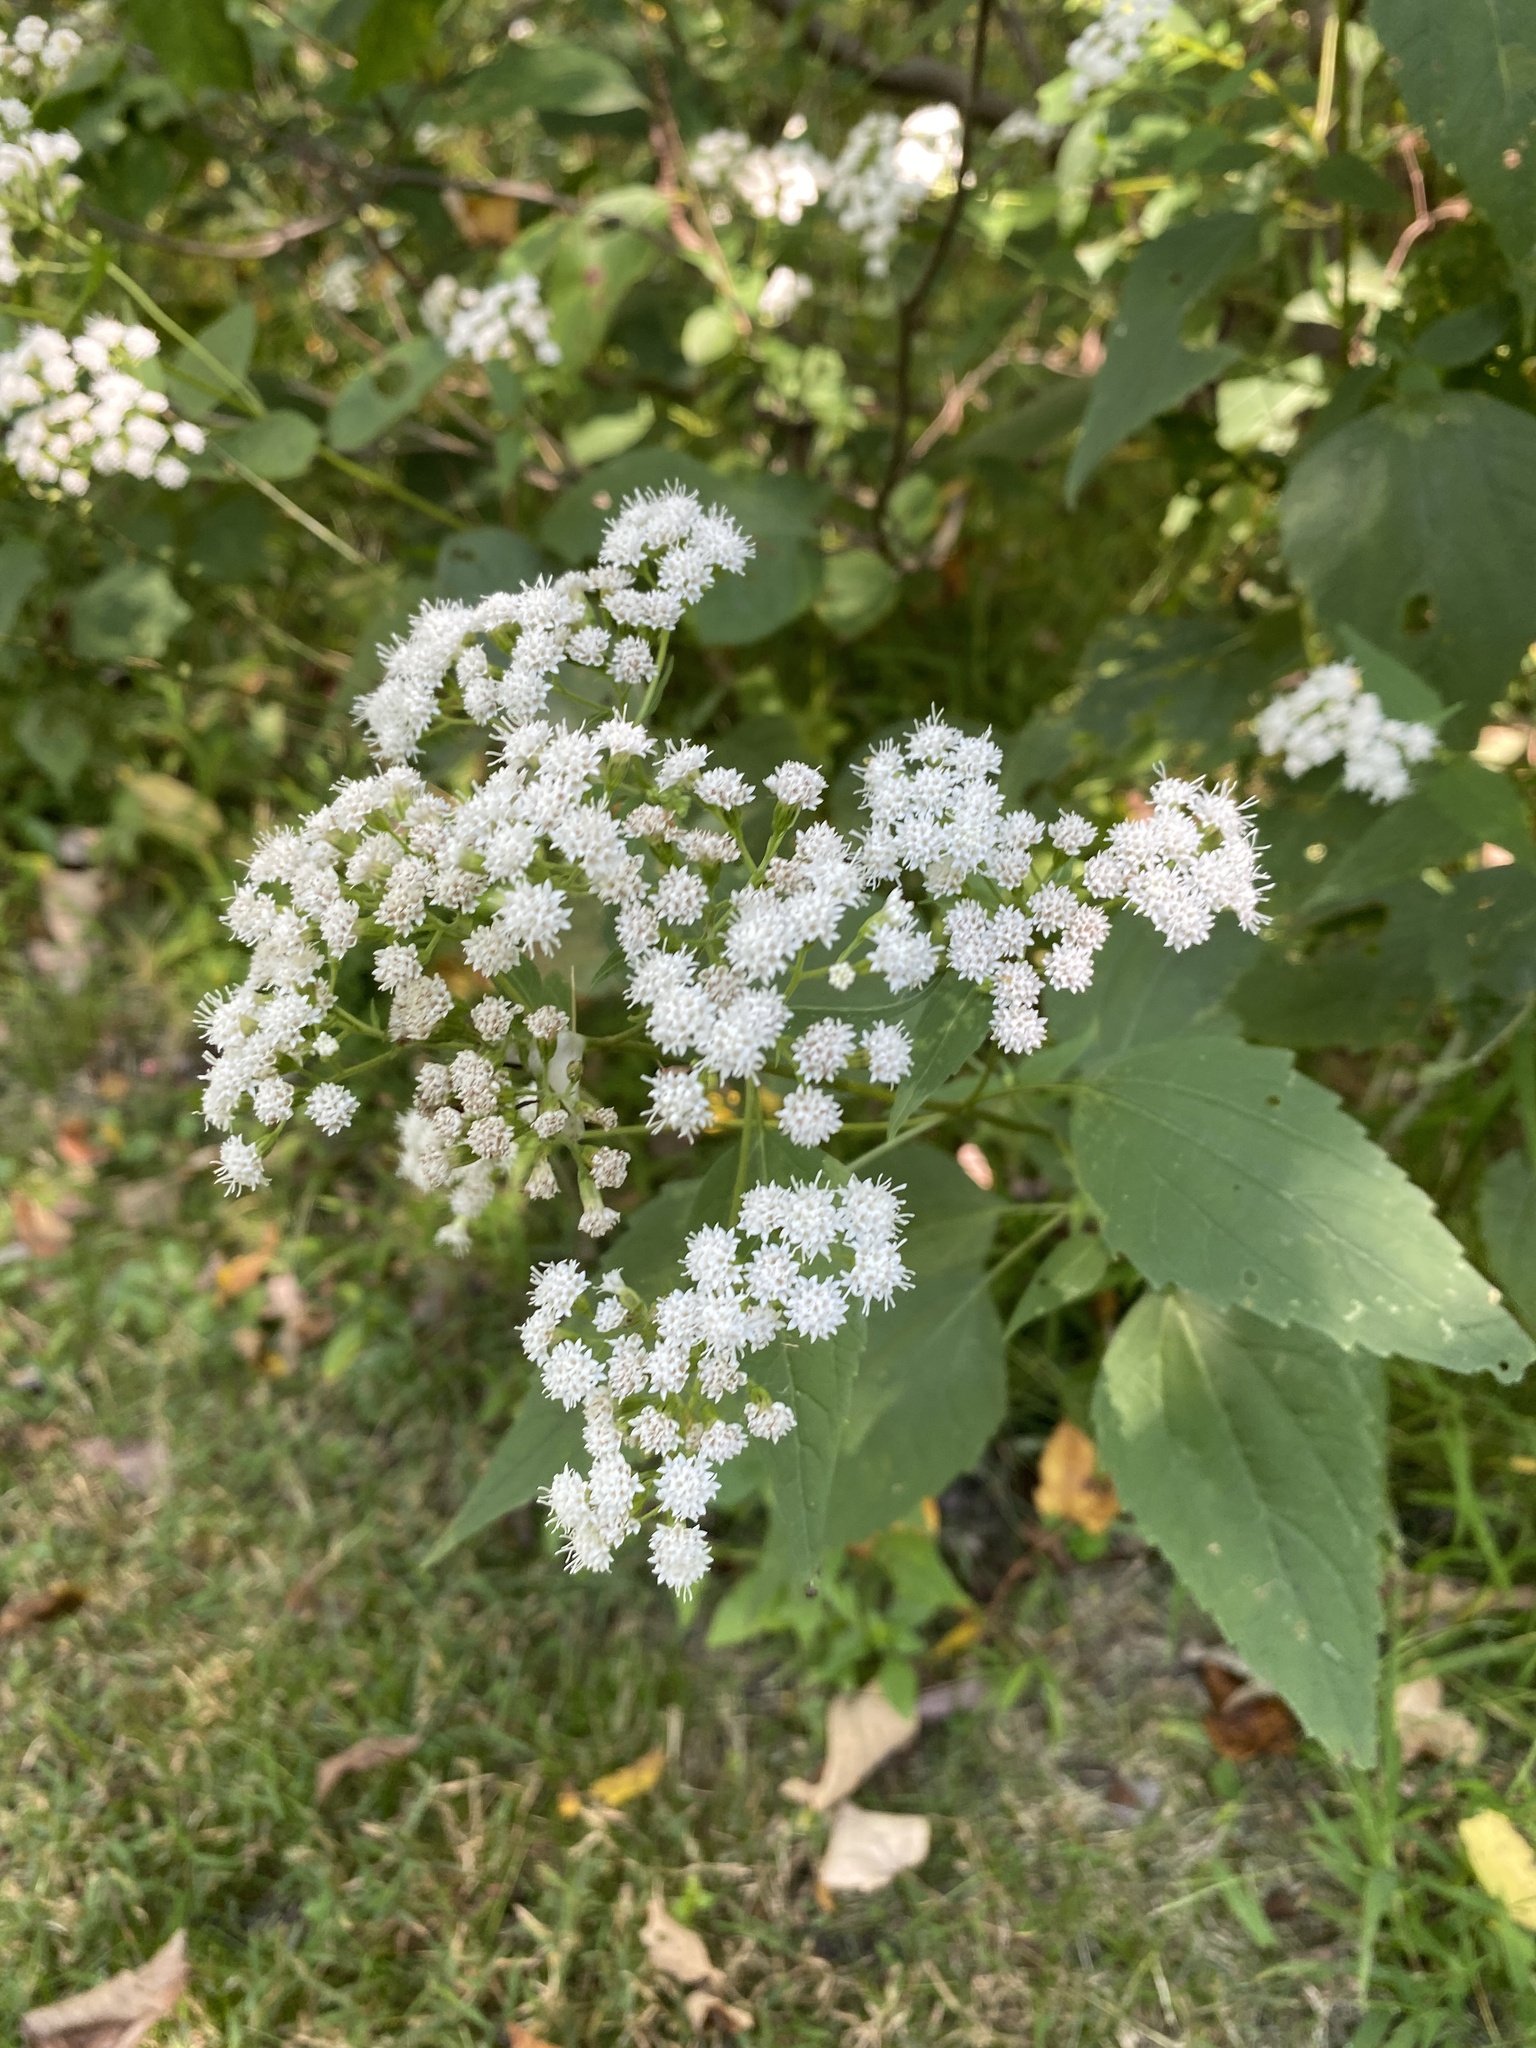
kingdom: Plantae
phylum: Tracheophyta
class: Magnoliopsida
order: Asterales
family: Asteraceae
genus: Ageratina
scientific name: Ageratina altissima
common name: White snakeroot
